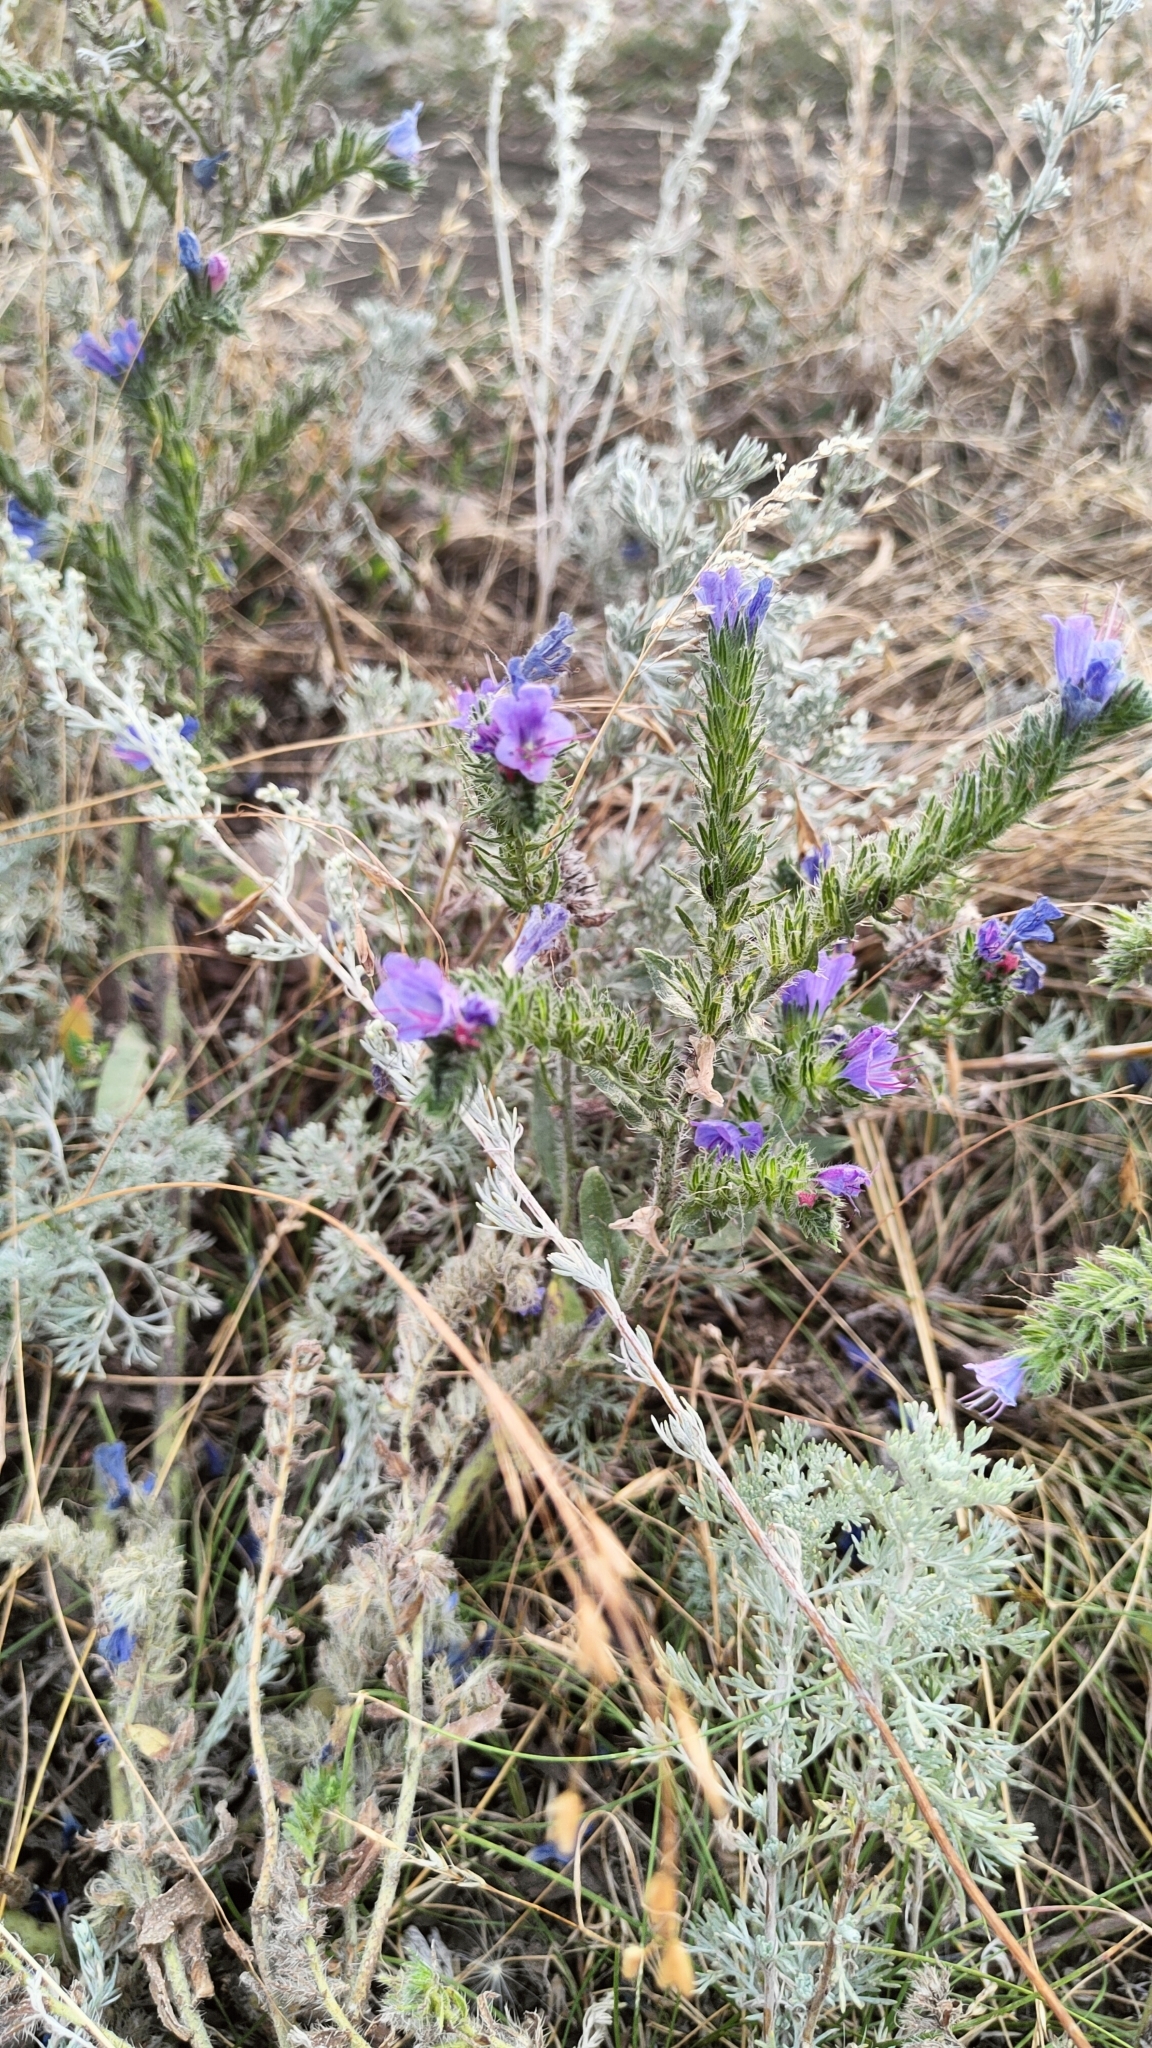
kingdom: Plantae
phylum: Tracheophyta
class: Magnoliopsida
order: Boraginales
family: Boraginaceae
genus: Echium
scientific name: Echium vulgare
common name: Common viper's bugloss
